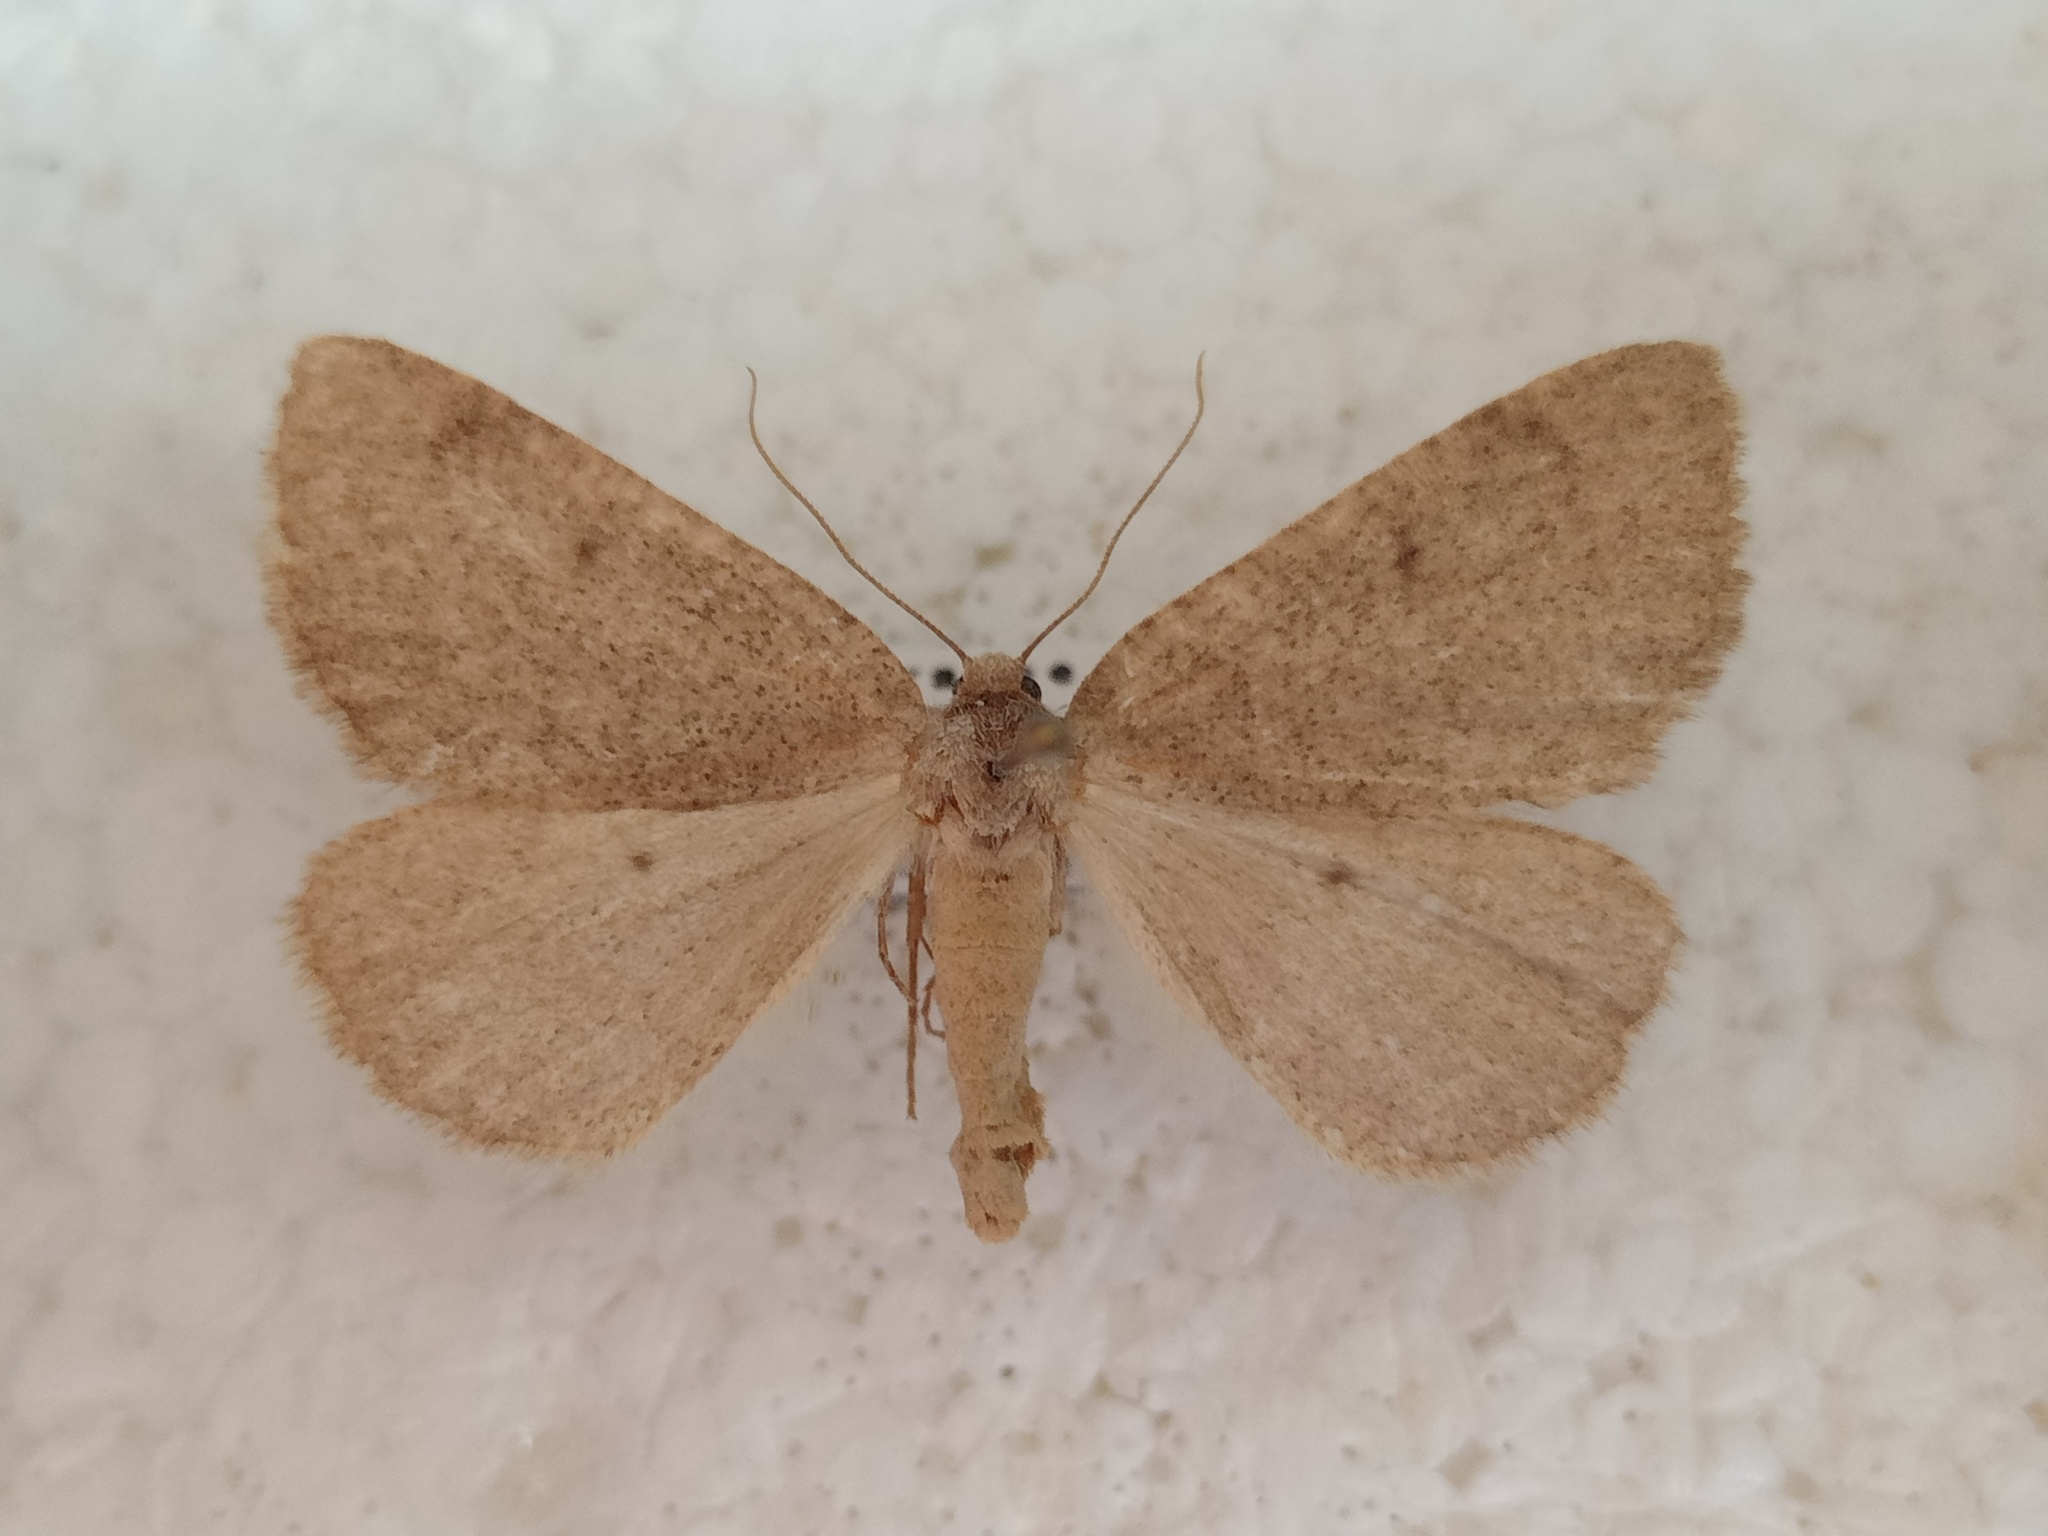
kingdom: Animalia
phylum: Arthropoda
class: Insecta
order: Lepidoptera
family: Geometridae
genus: Onychora
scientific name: Onychora agaritharia
